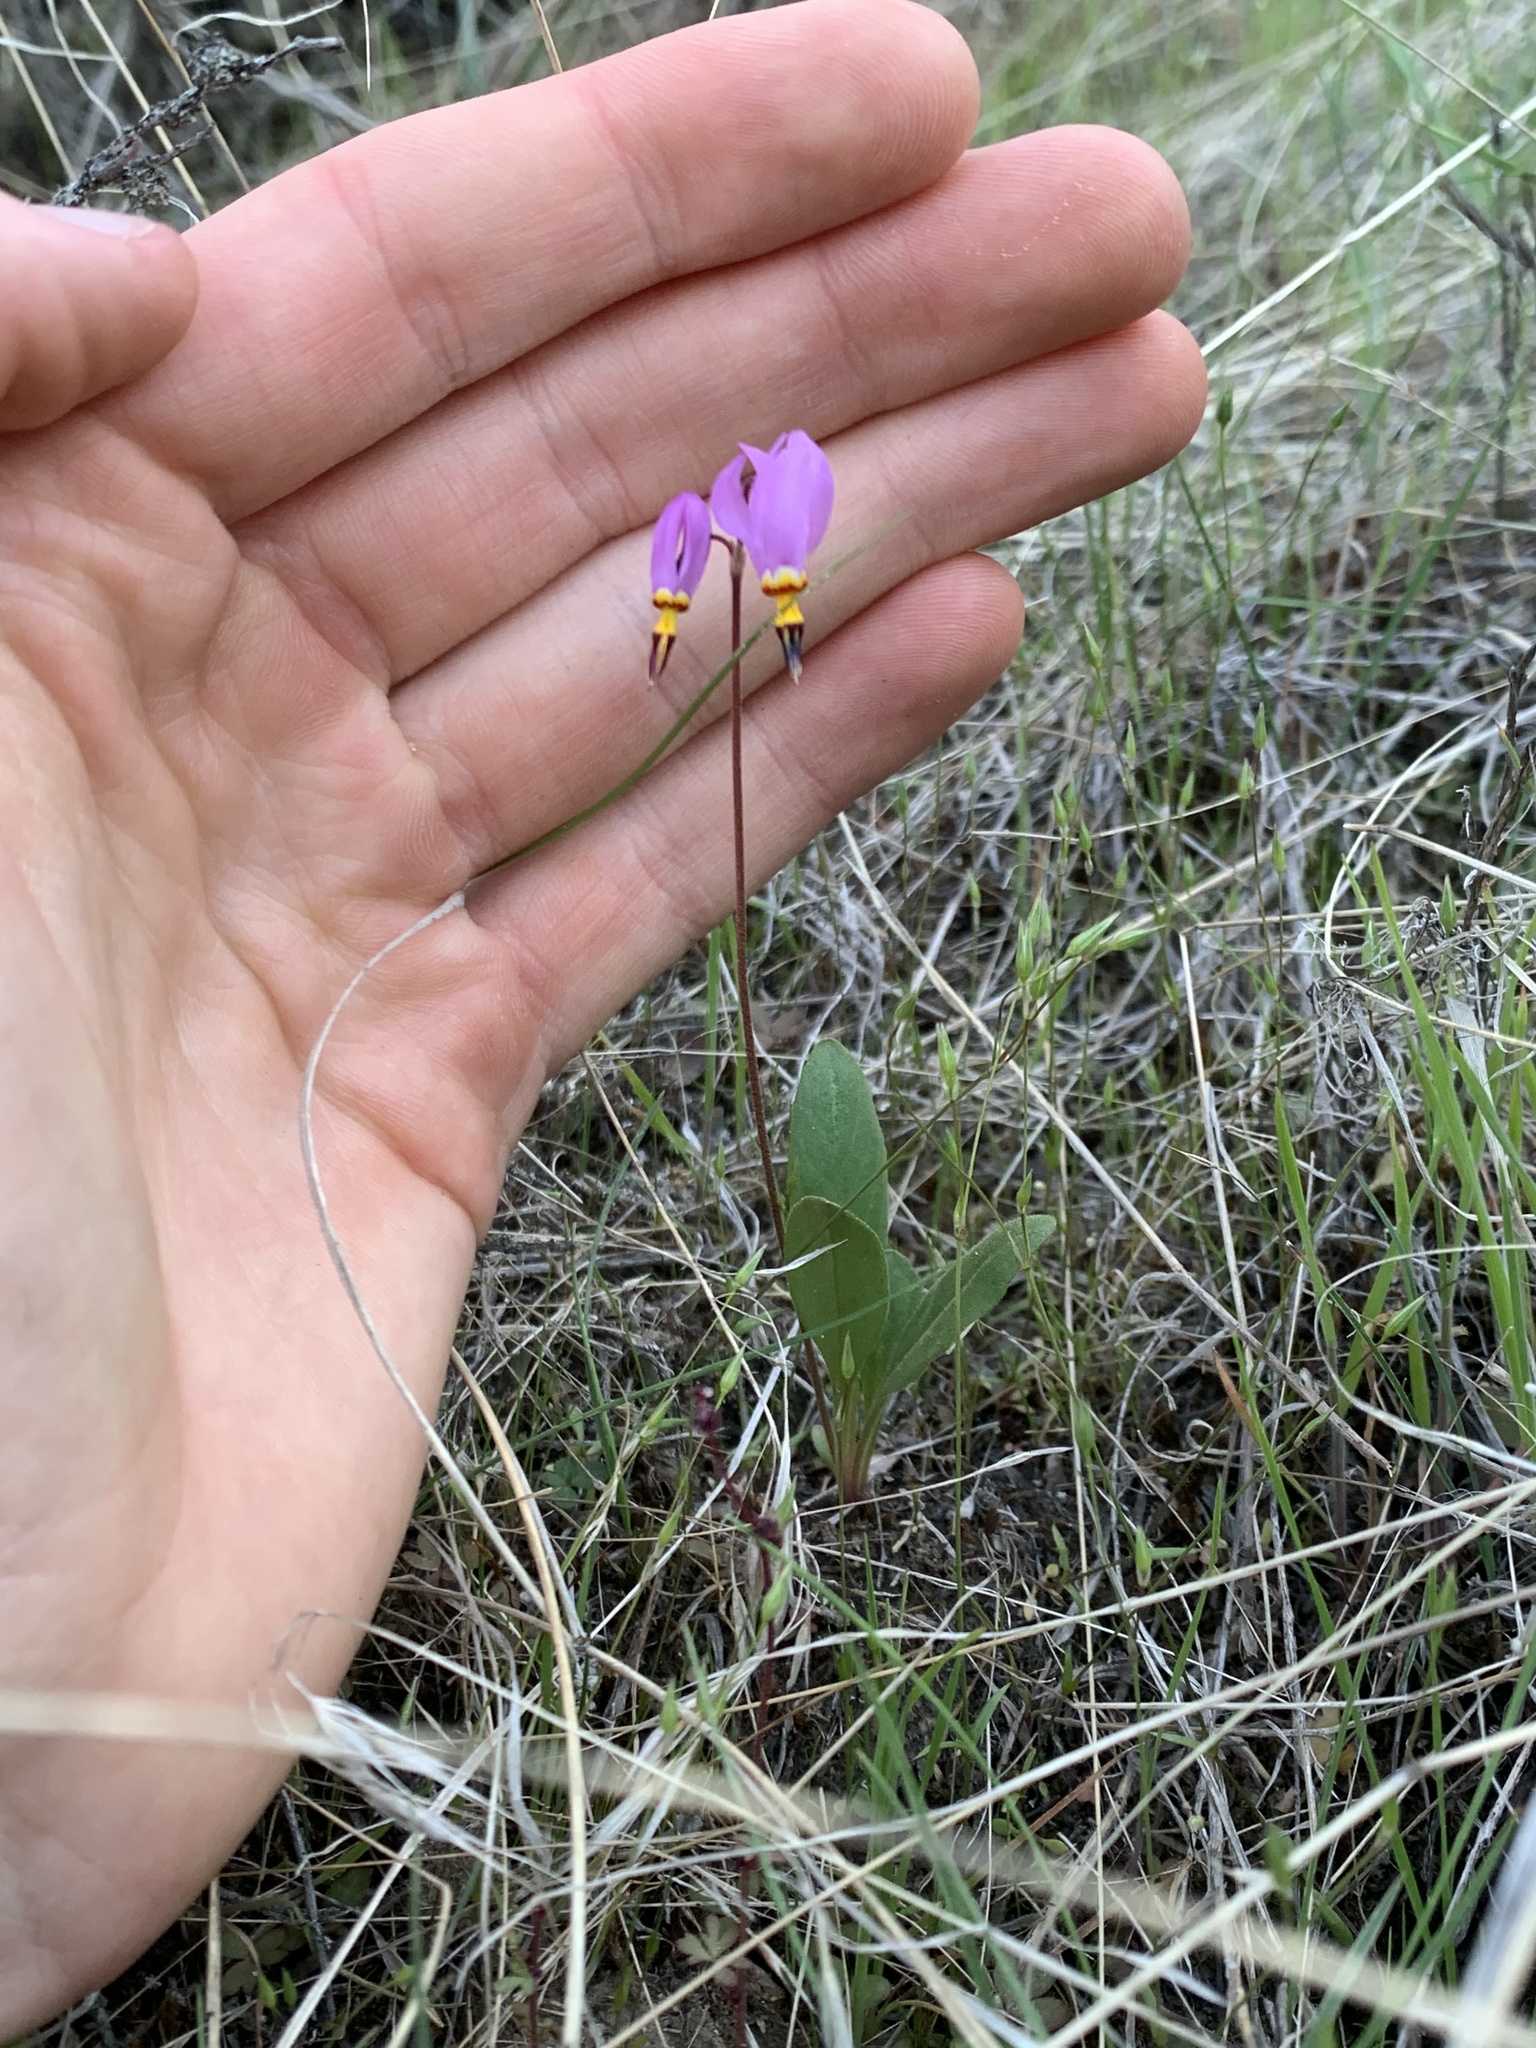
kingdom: Plantae
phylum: Tracheophyta
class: Magnoliopsida
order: Ericales
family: Primulaceae
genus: Dodecatheon
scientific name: Dodecatheon pulchellum
